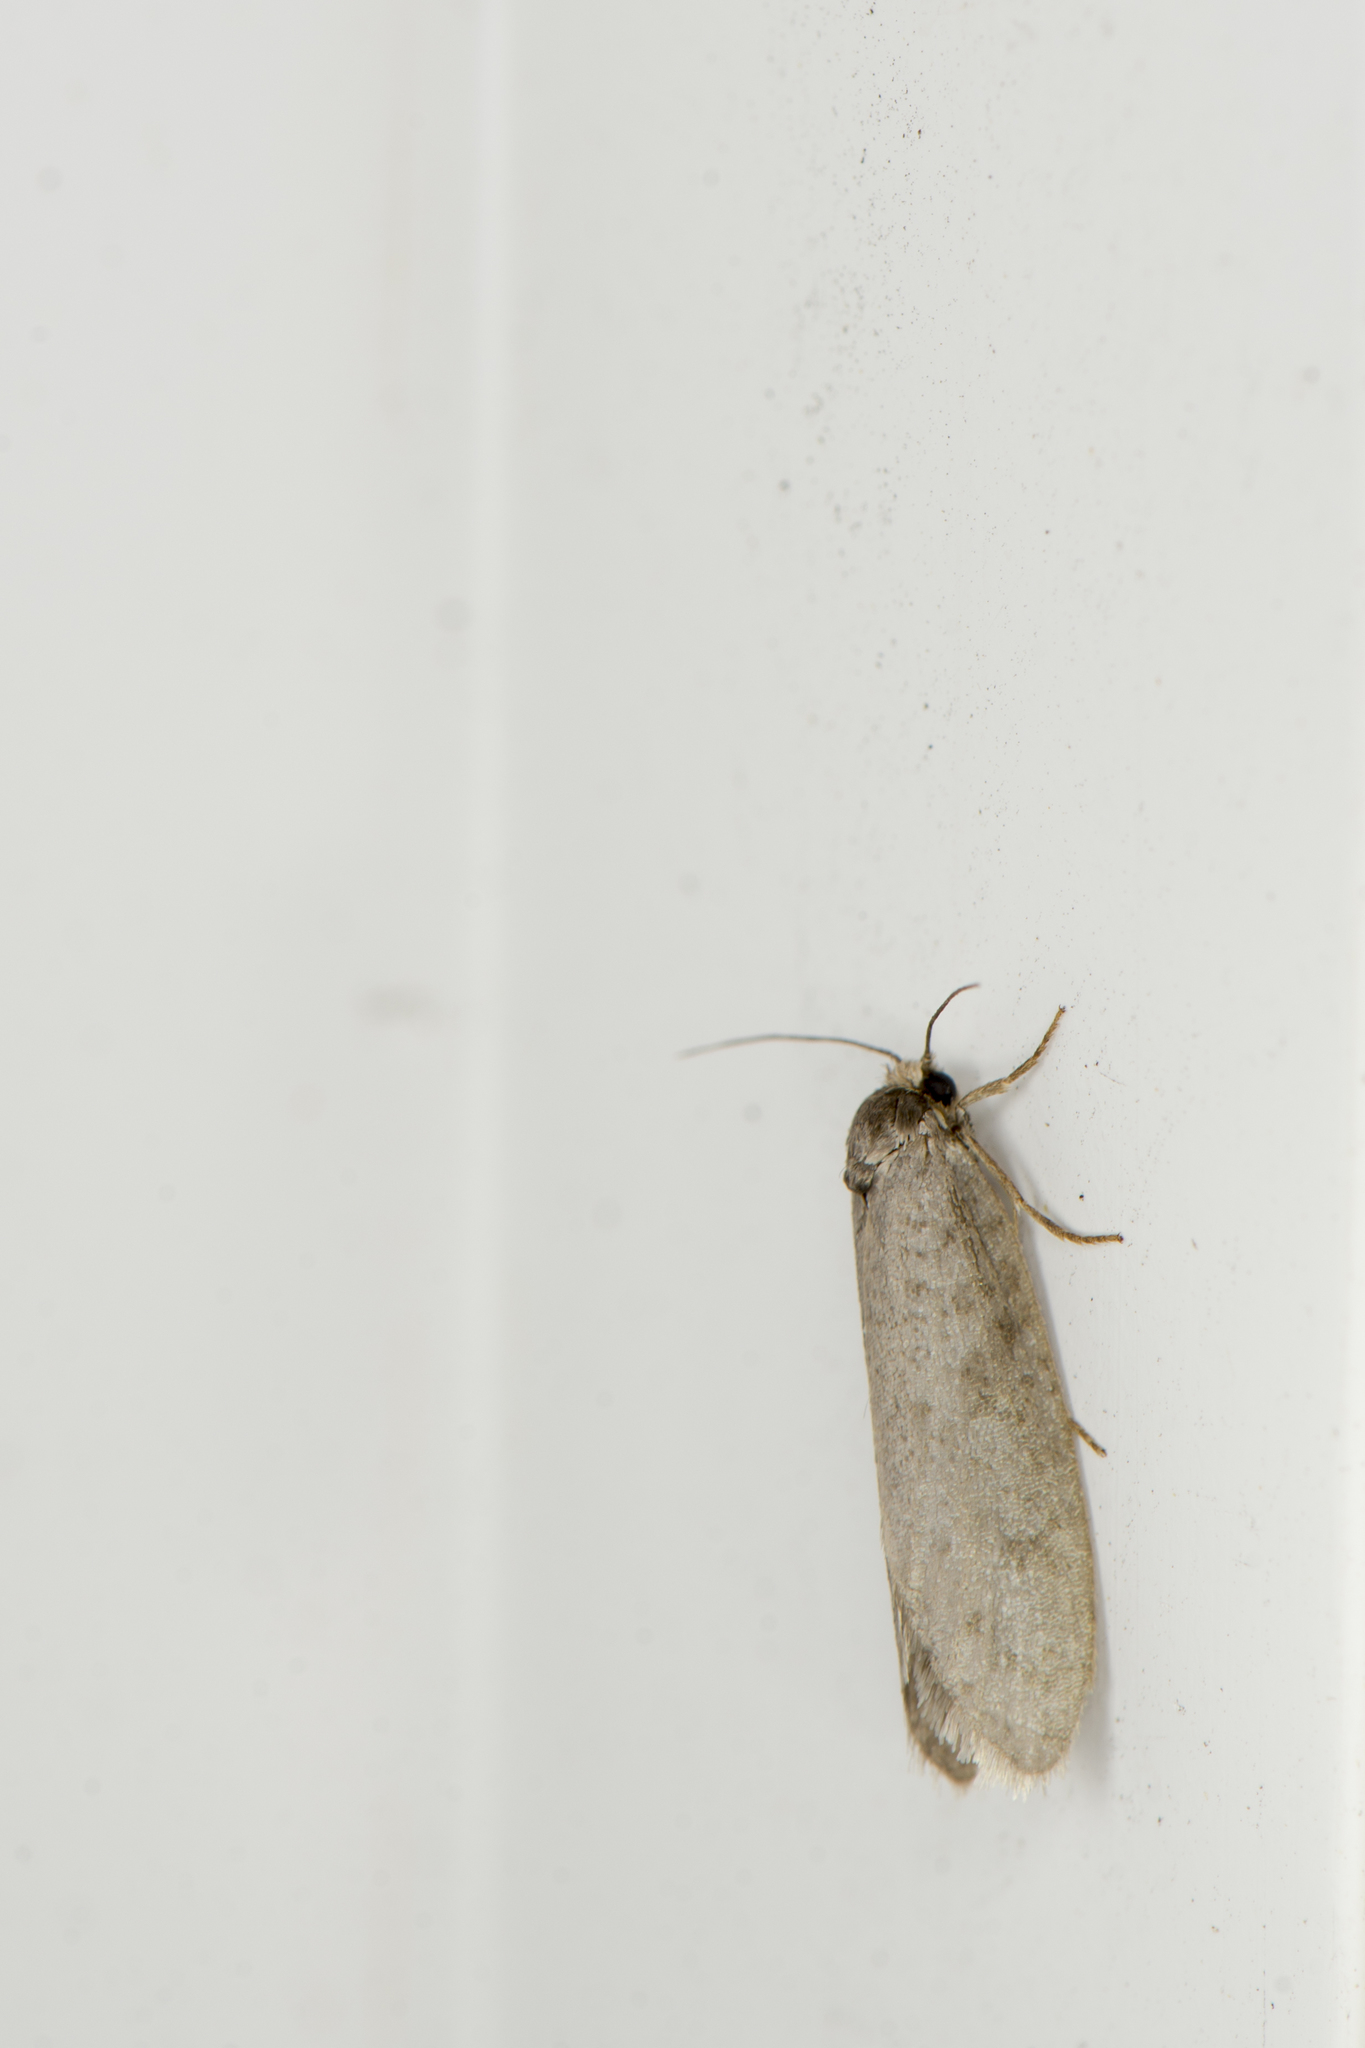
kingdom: Animalia
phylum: Arthropoda
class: Insecta
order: Lepidoptera
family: Psychidae
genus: Lepidoscia
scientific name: Lepidoscia protorna
